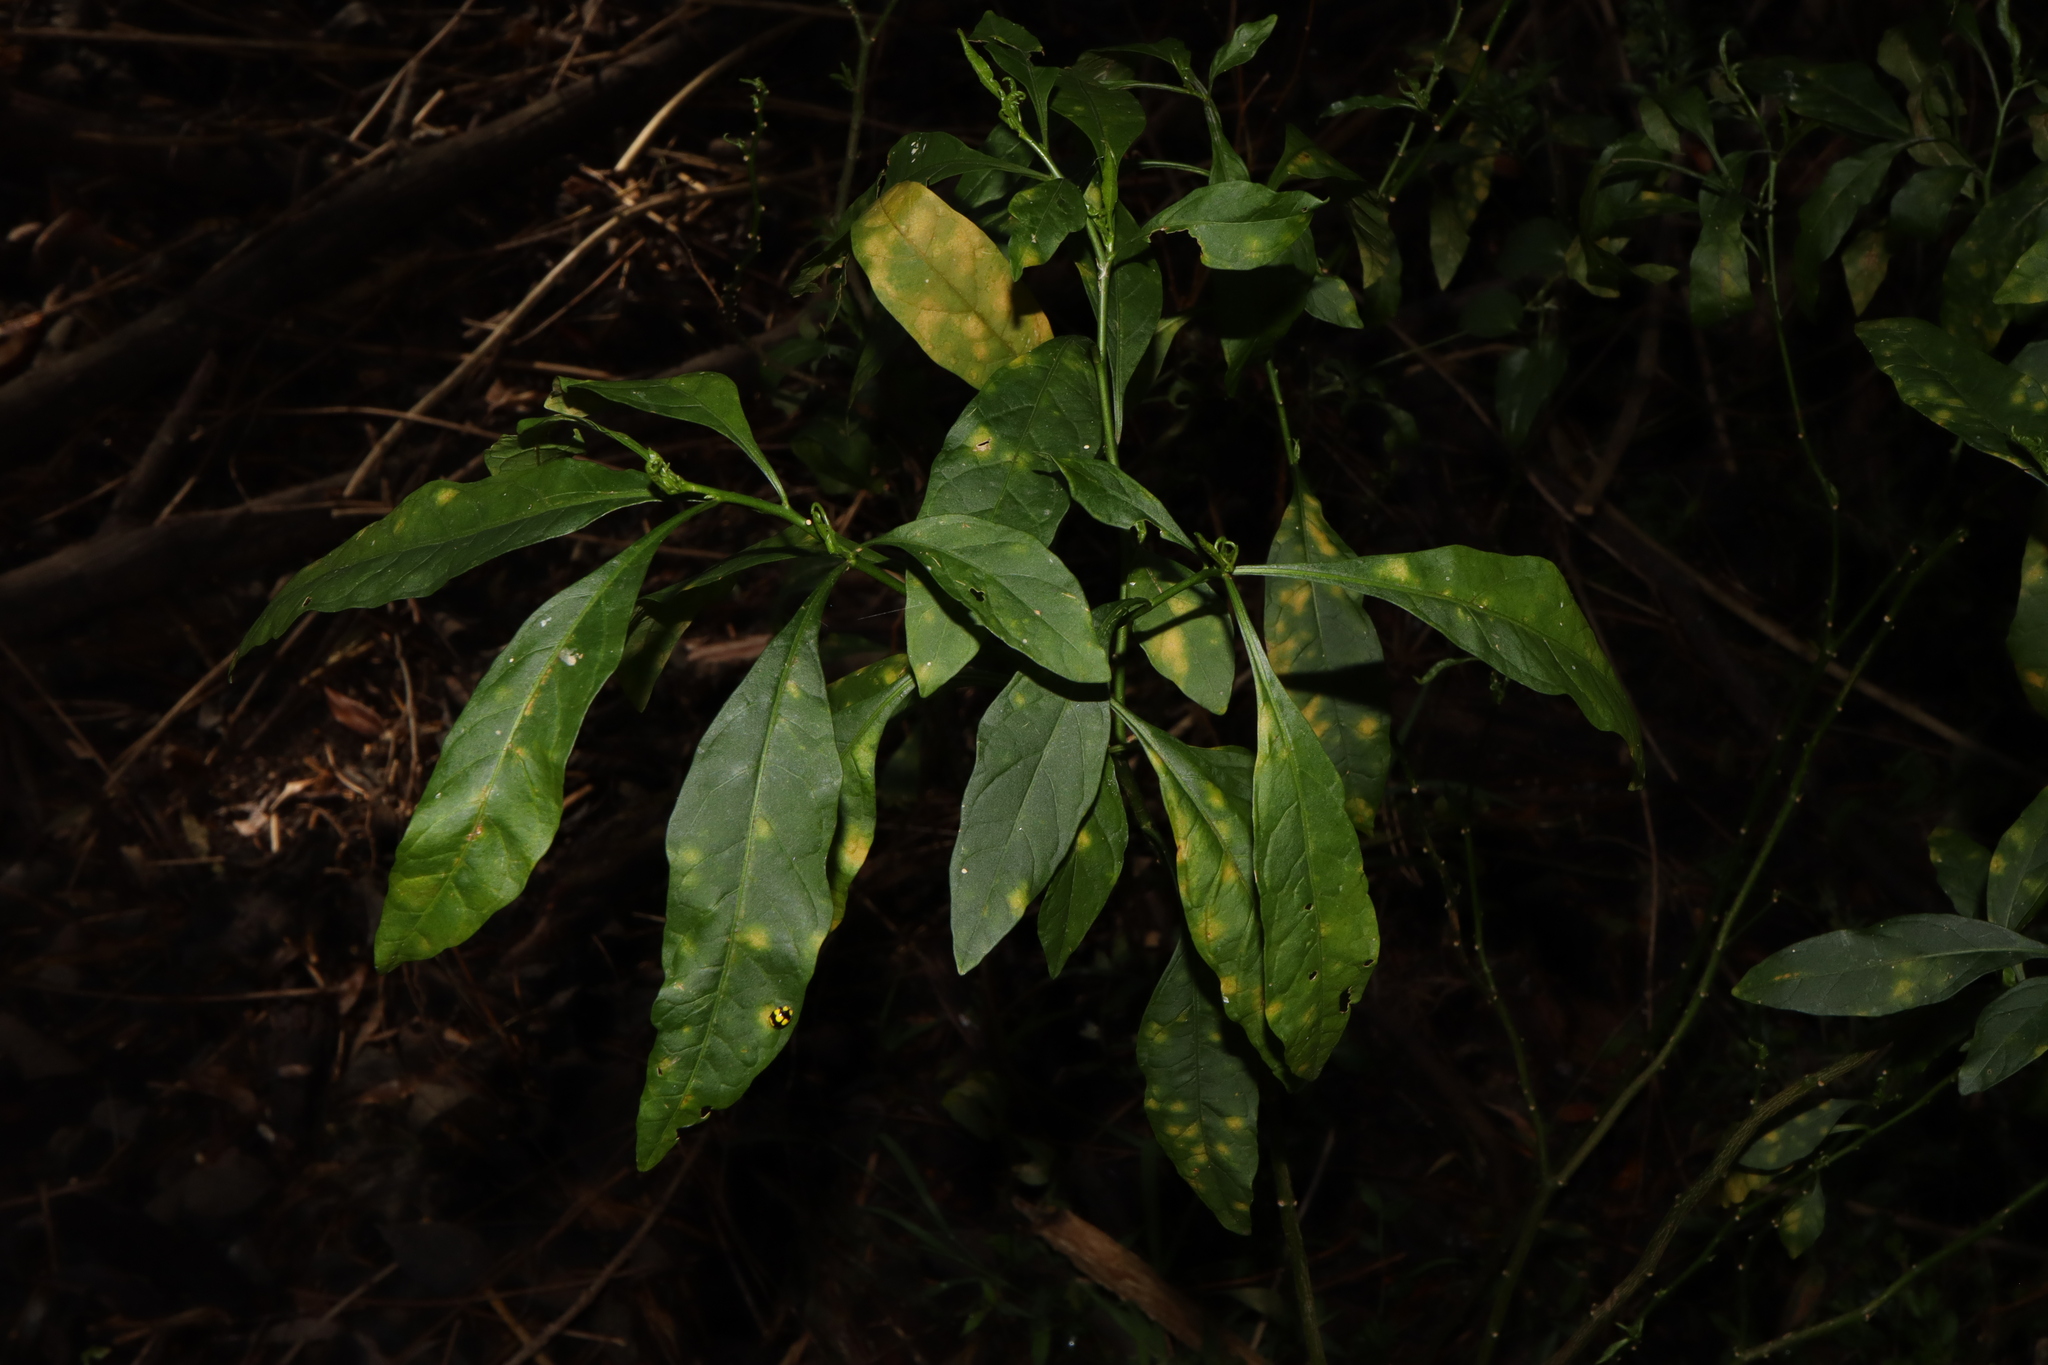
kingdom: Plantae
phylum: Tracheophyta
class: Magnoliopsida
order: Solanales
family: Solanaceae
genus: Solanum
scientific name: Solanum pseudocapsicum
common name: Jerusalem cherry
